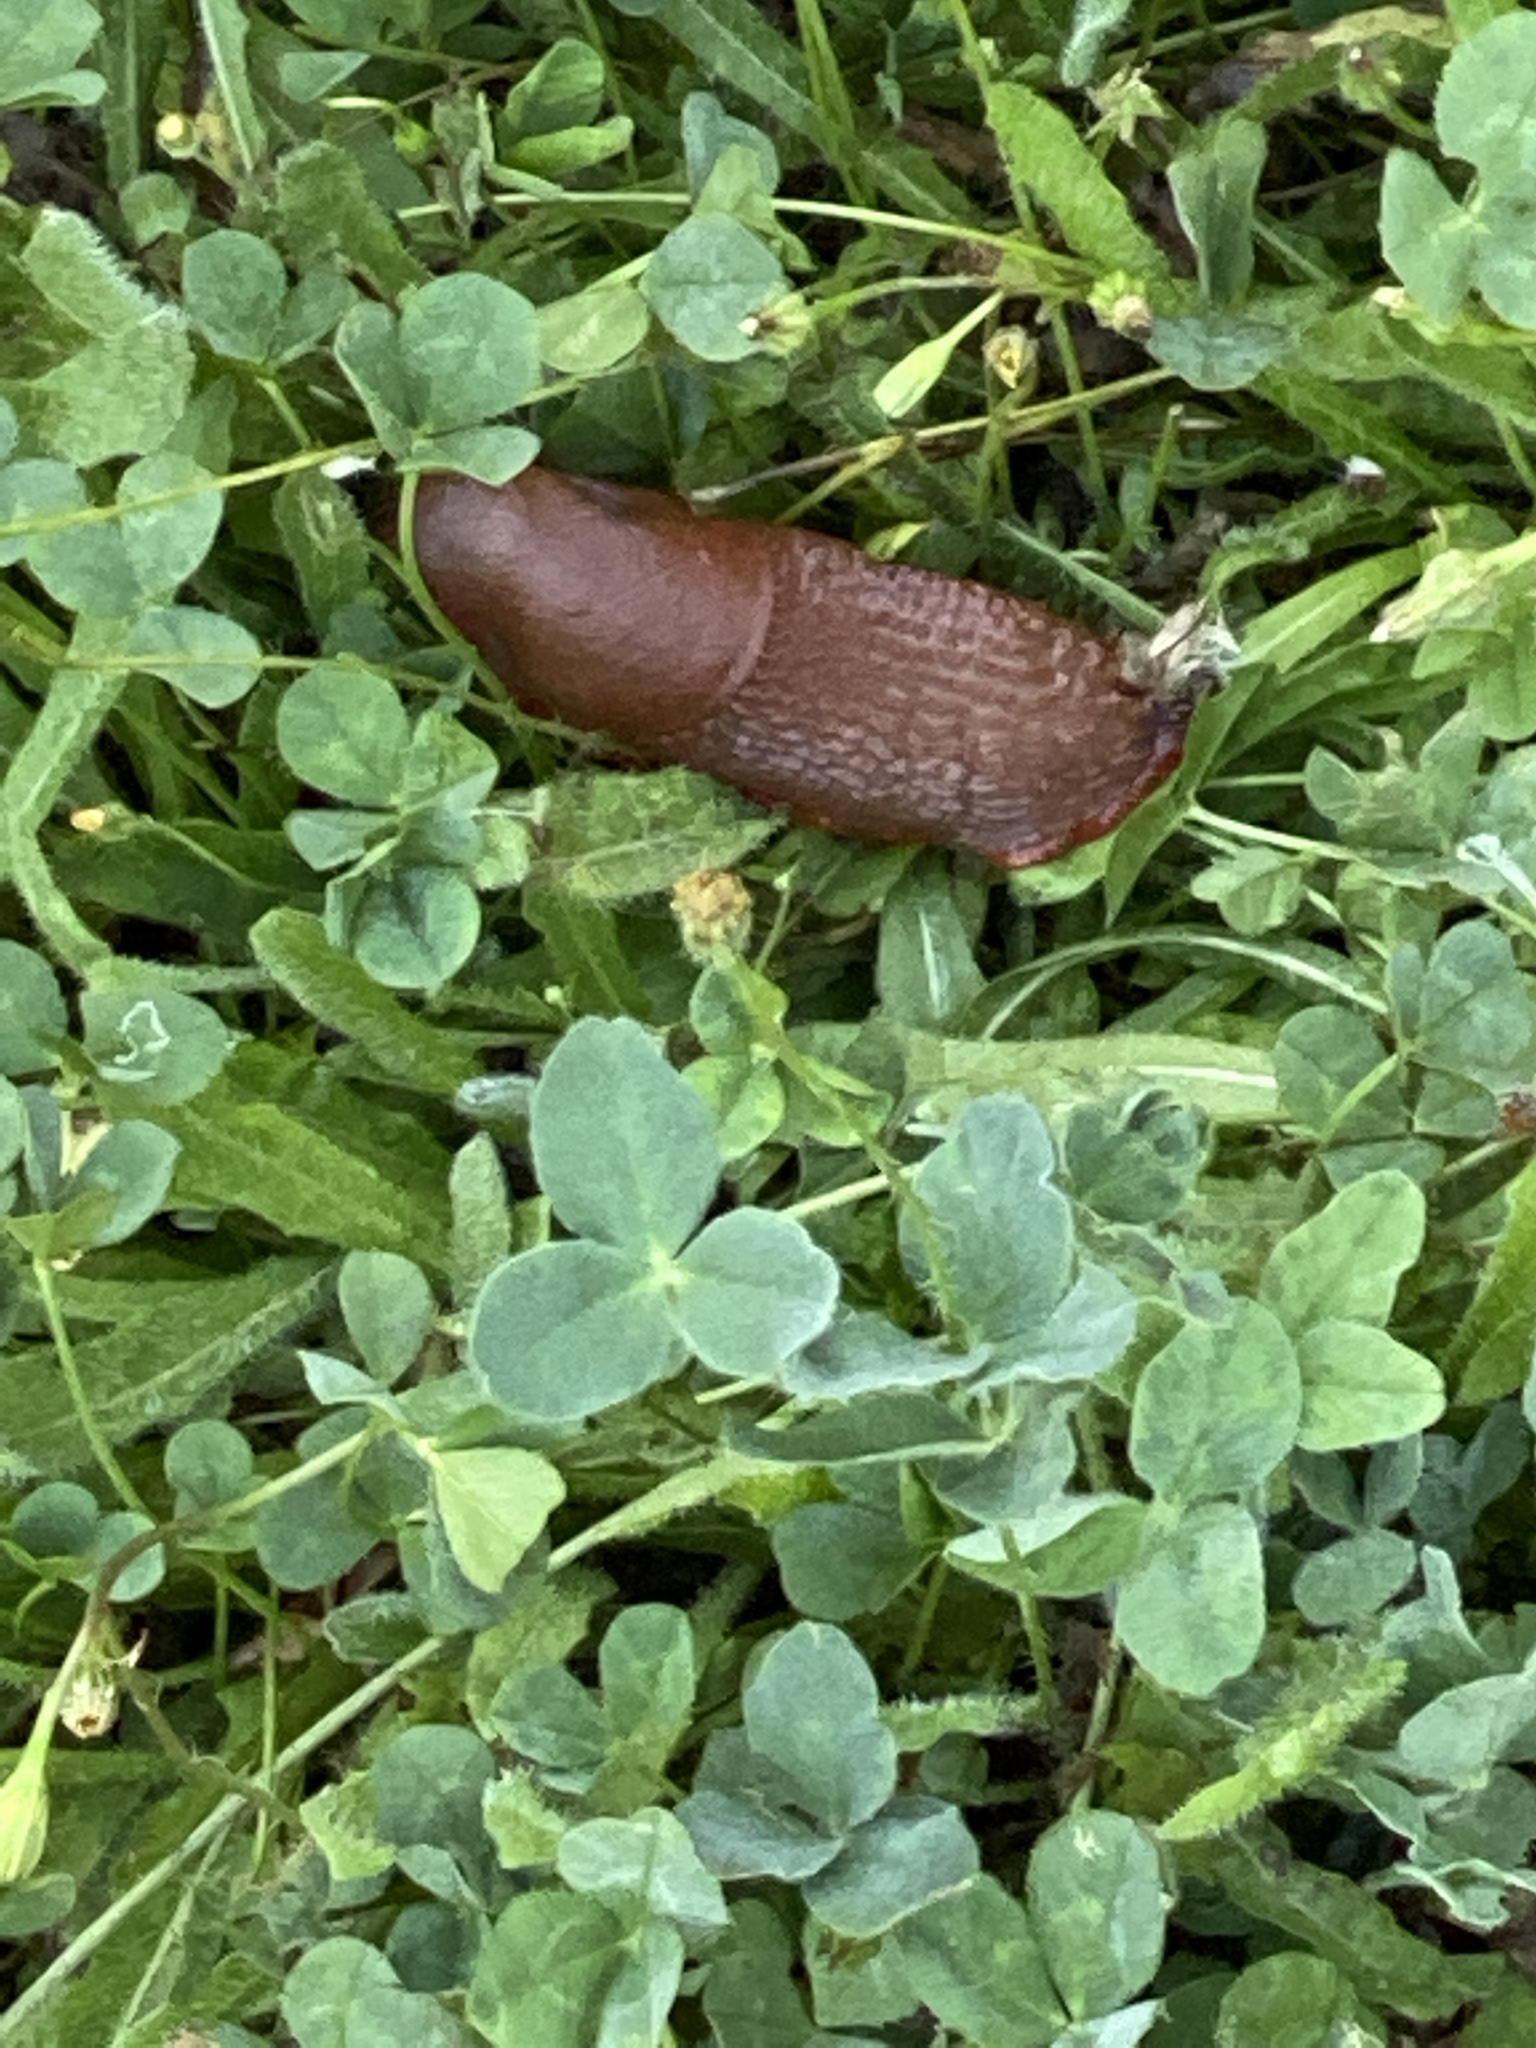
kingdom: Animalia
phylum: Mollusca
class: Gastropoda
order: Stylommatophora
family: Arionidae
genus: Arion
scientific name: Arion rufus
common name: Chocolate arion
